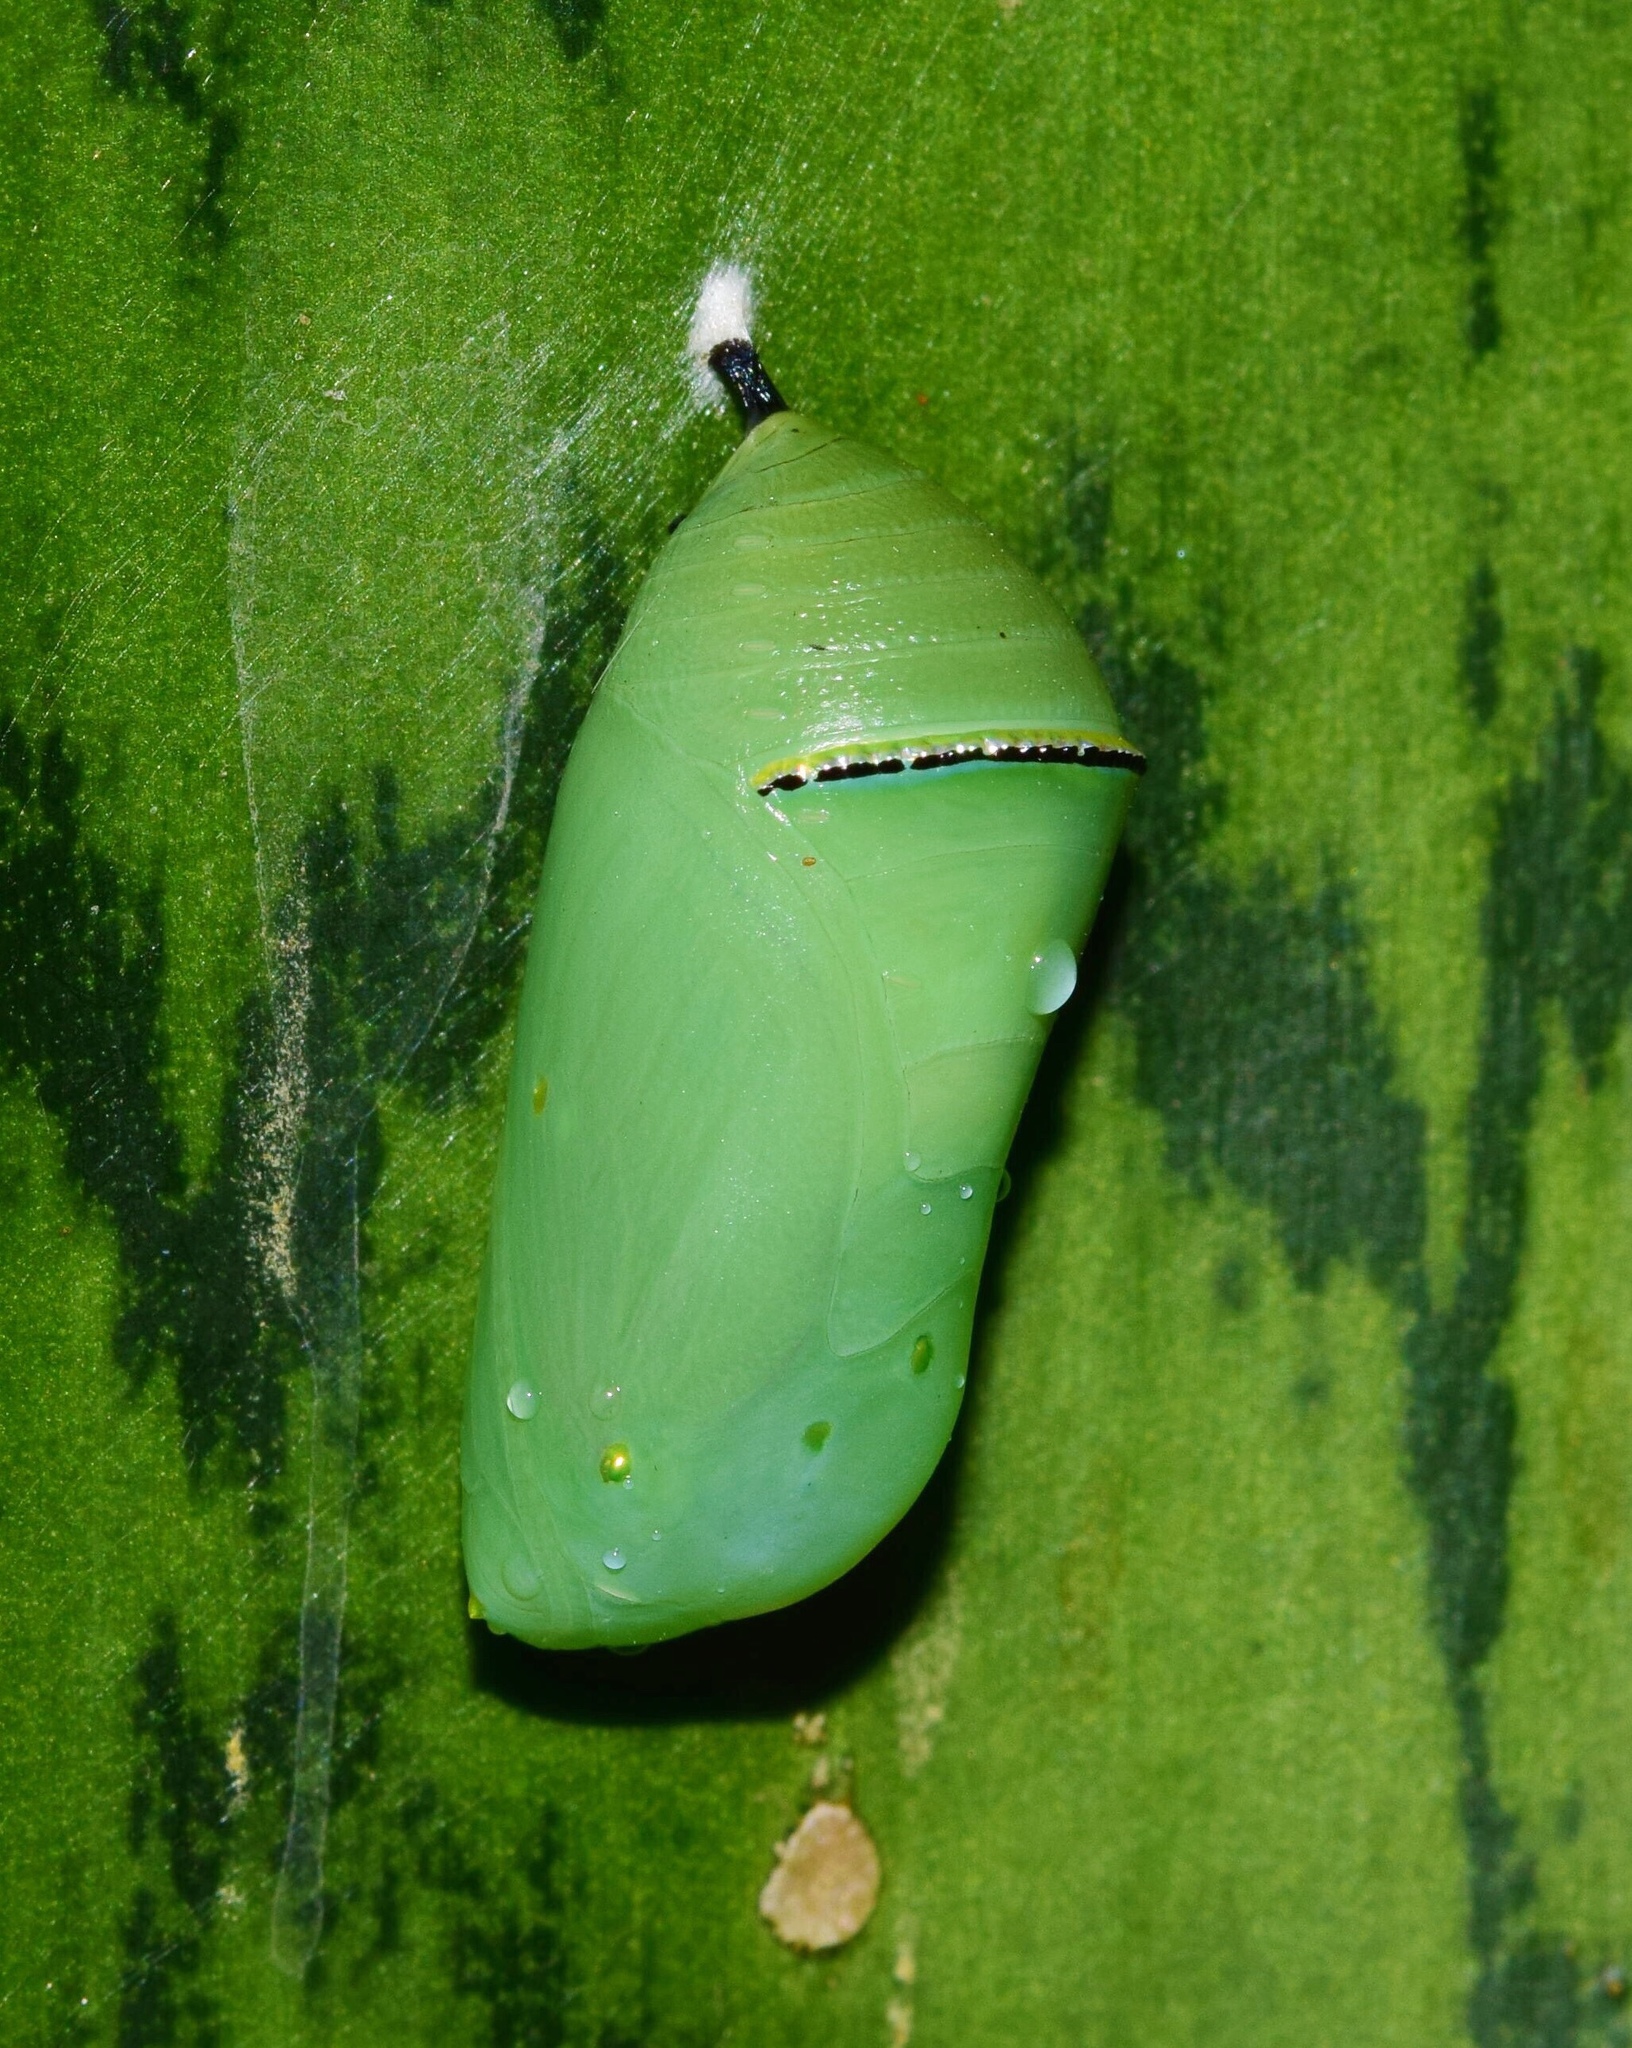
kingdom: Animalia
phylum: Arthropoda
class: Insecta
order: Lepidoptera
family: Nymphalidae
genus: Danaus
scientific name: Danaus chrysippus
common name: Plain tiger
